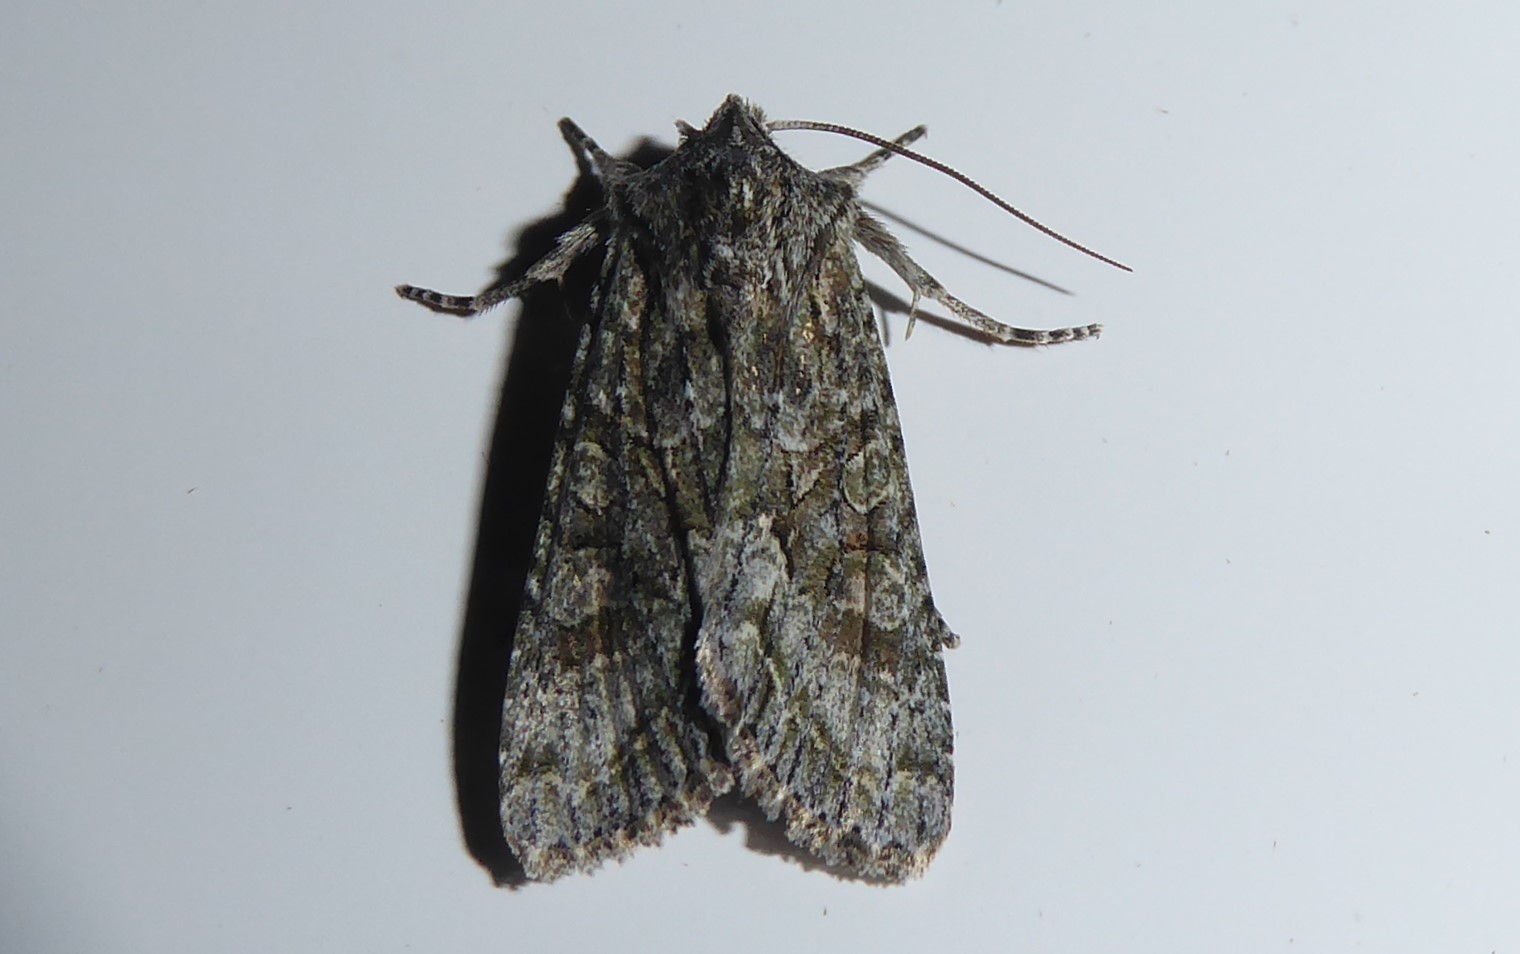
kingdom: Animalia
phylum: Arthropoda
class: Insecta
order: Lepidoptera
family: Noctuidae
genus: Ichneutica
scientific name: Ichneutica mutans
